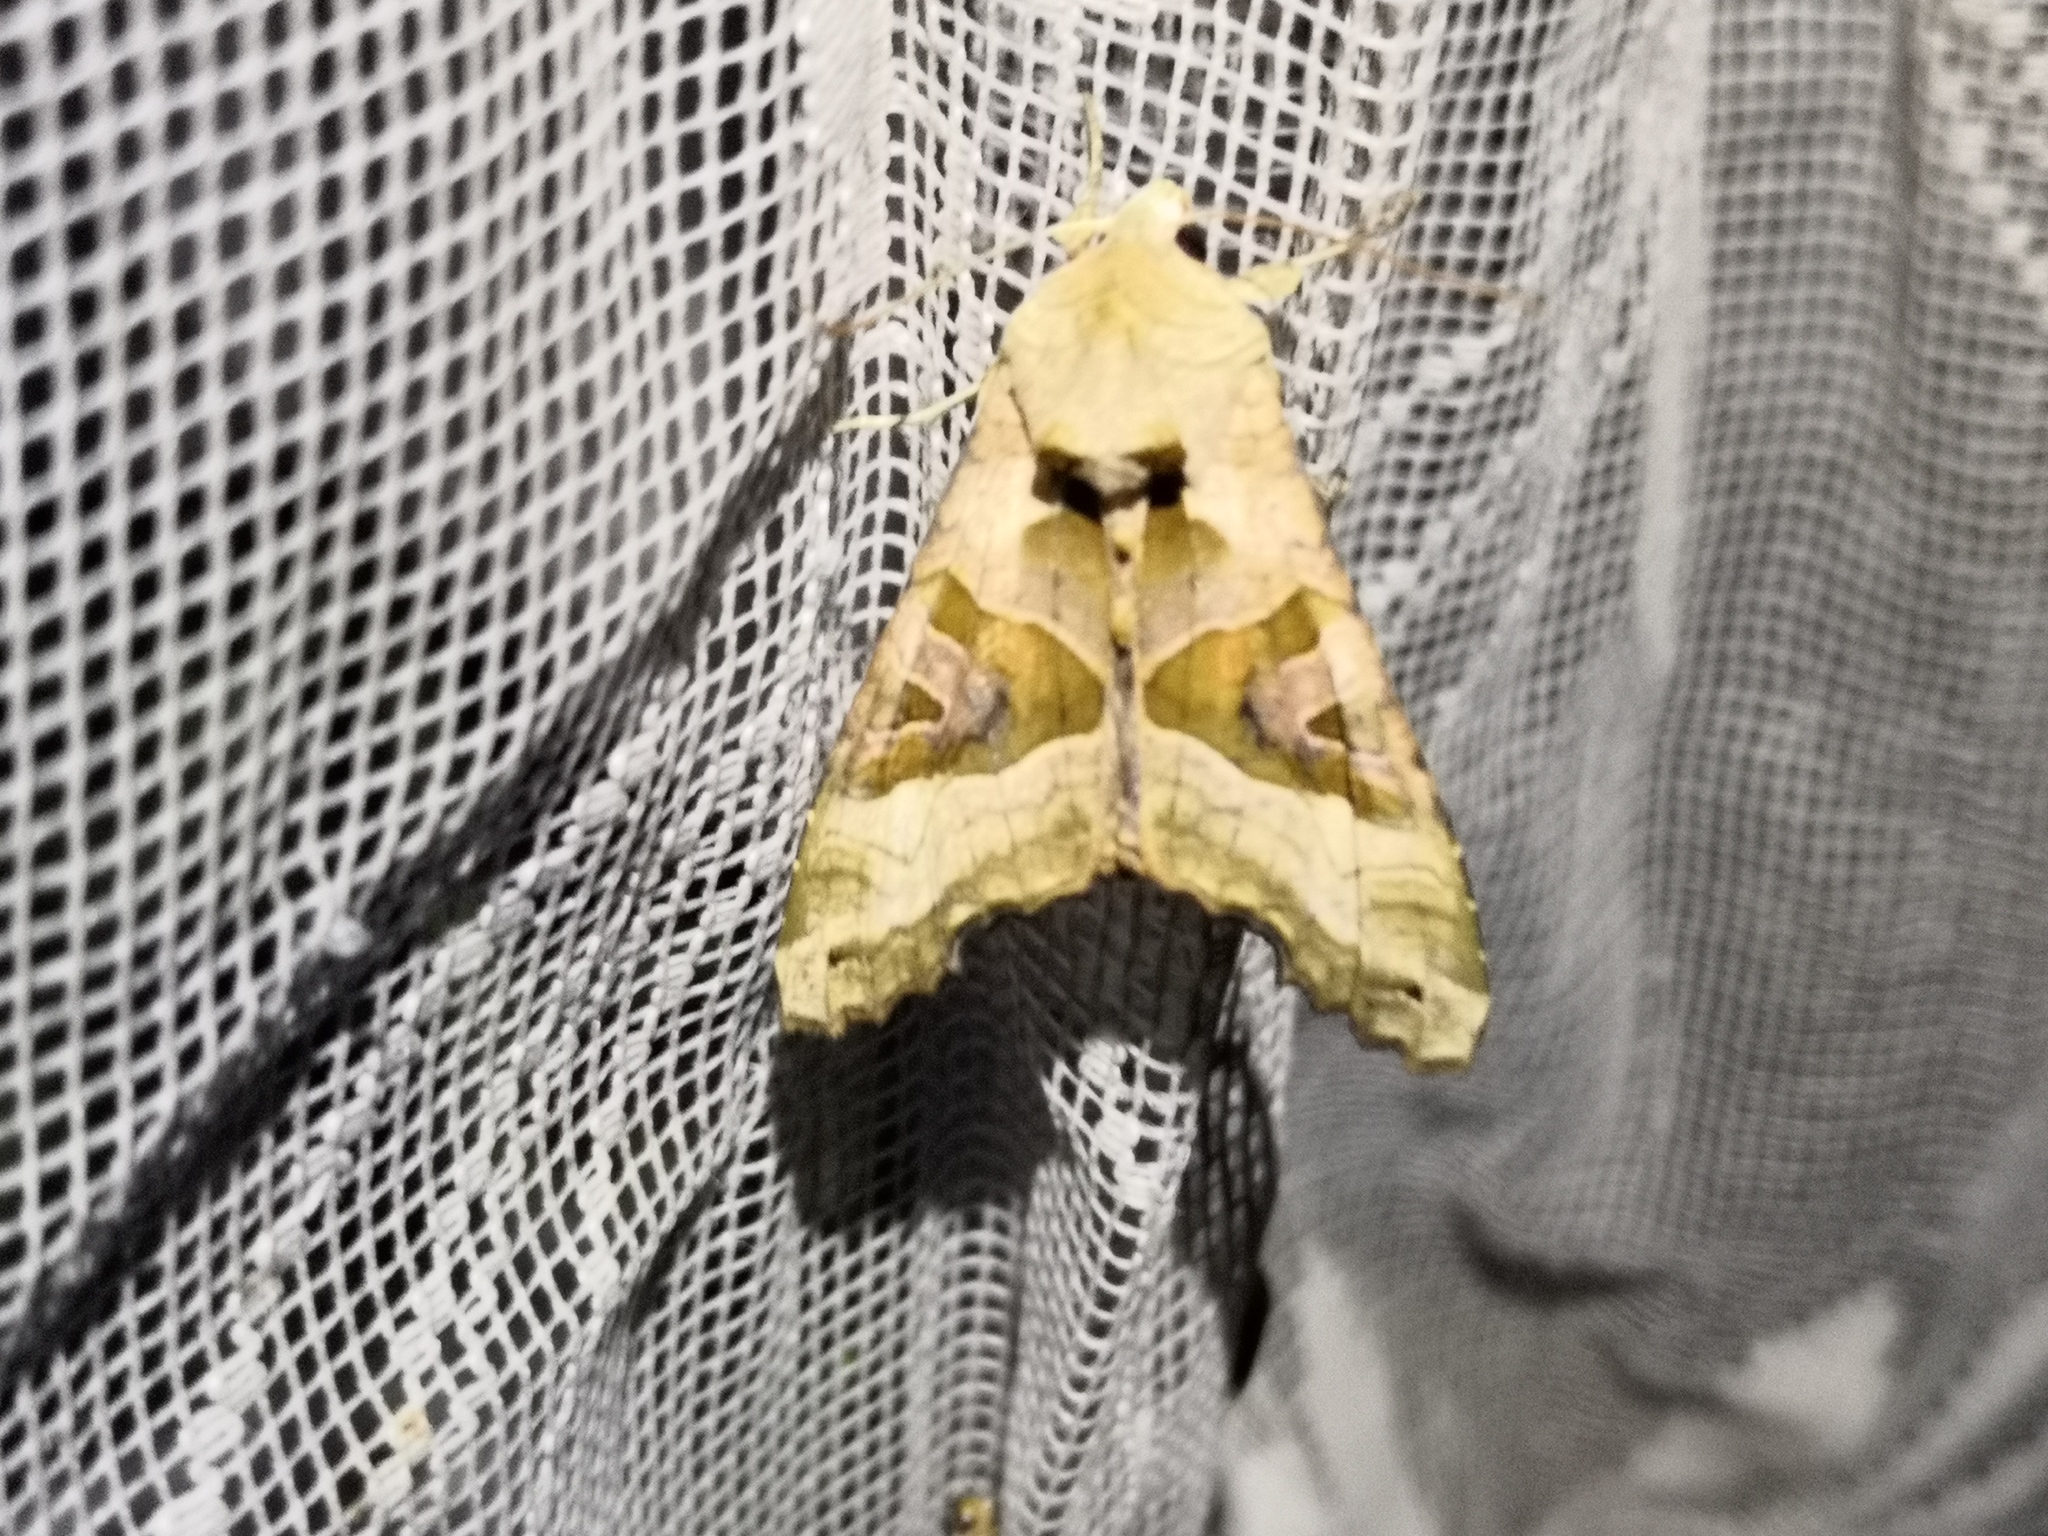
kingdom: Animalia
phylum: Arthropoda
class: Insecta
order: Lepidoptera
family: Noctuidae
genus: Phlogophora
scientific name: Phlogophora meticulosa
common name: Angle shades
